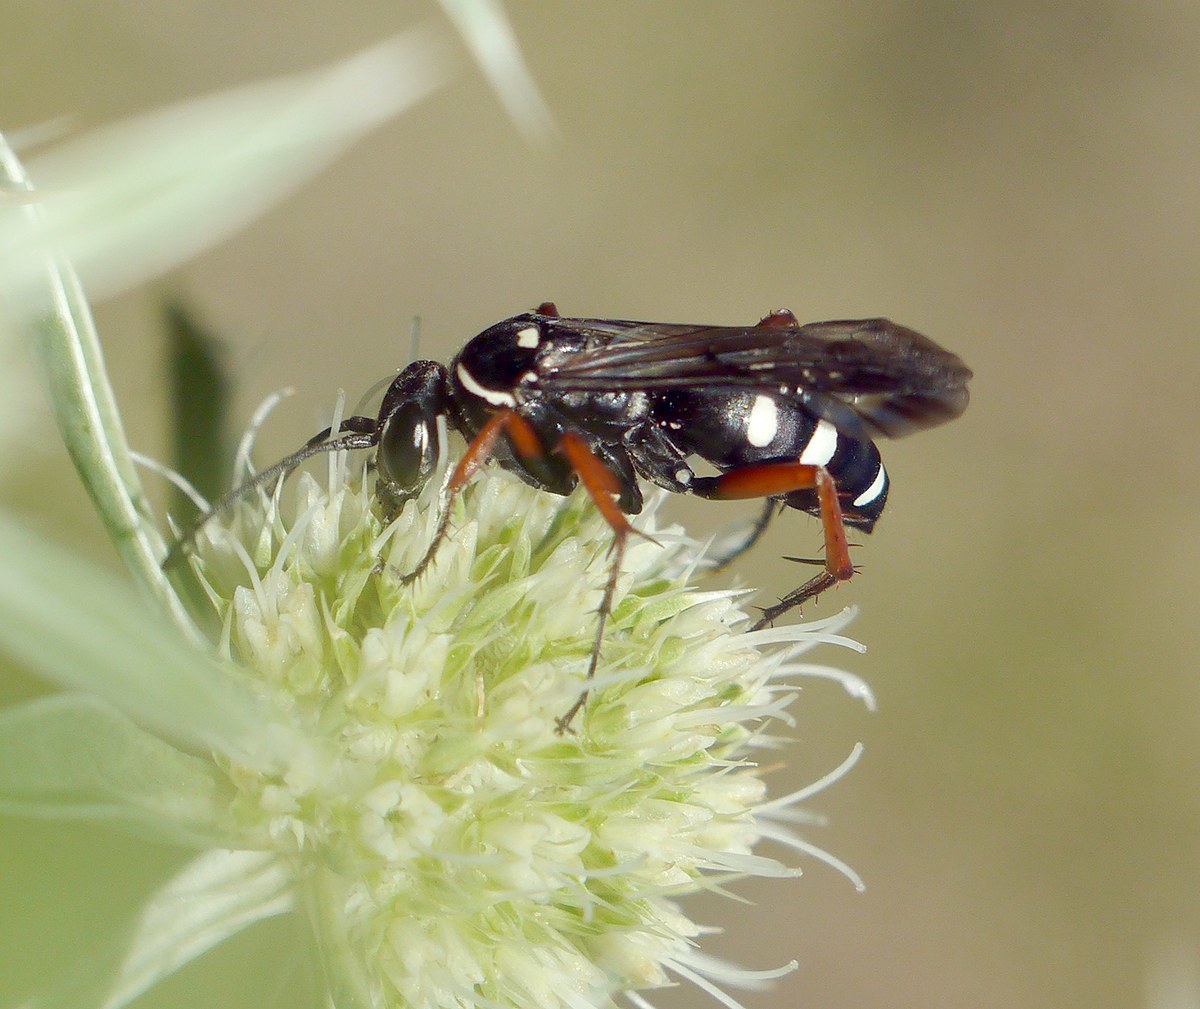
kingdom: Animalia
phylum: Arthropoda
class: Insecta
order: Hymenoptera
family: Pompilidae
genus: Episyron
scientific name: Episyron albonotatum
